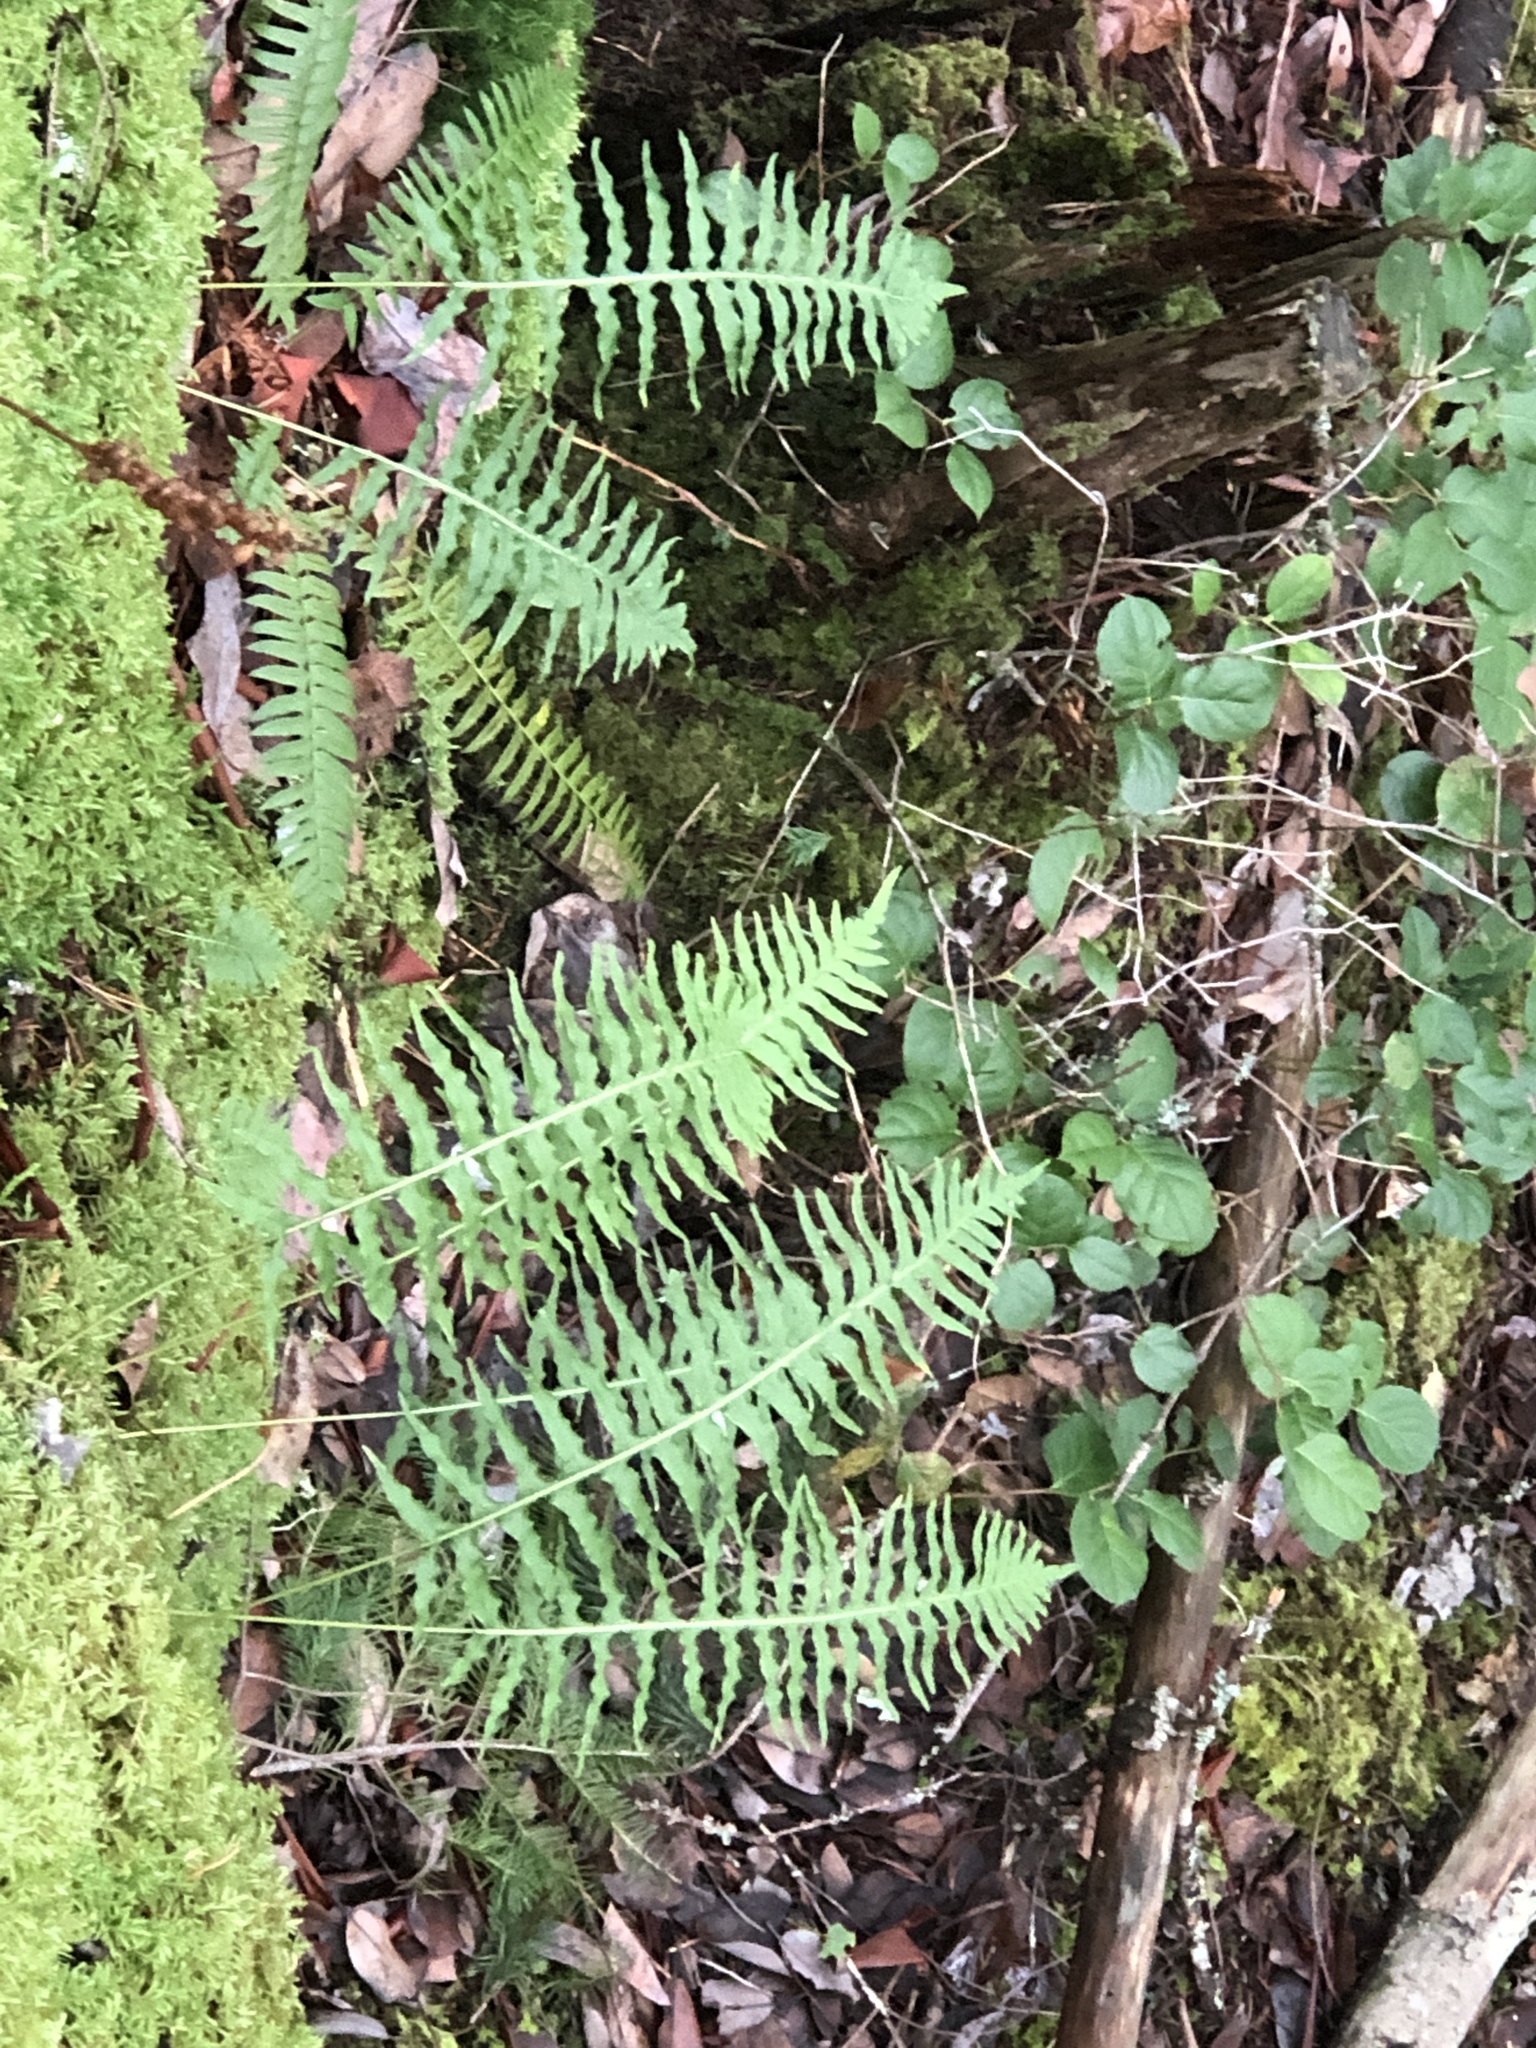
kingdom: Plantae
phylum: Tracheophyta
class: Polypodiopsida
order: Polypodiales
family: Polypodiaceae
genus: Polypodium
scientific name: Polypodium glycyrrhiza
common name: Licorice fern
